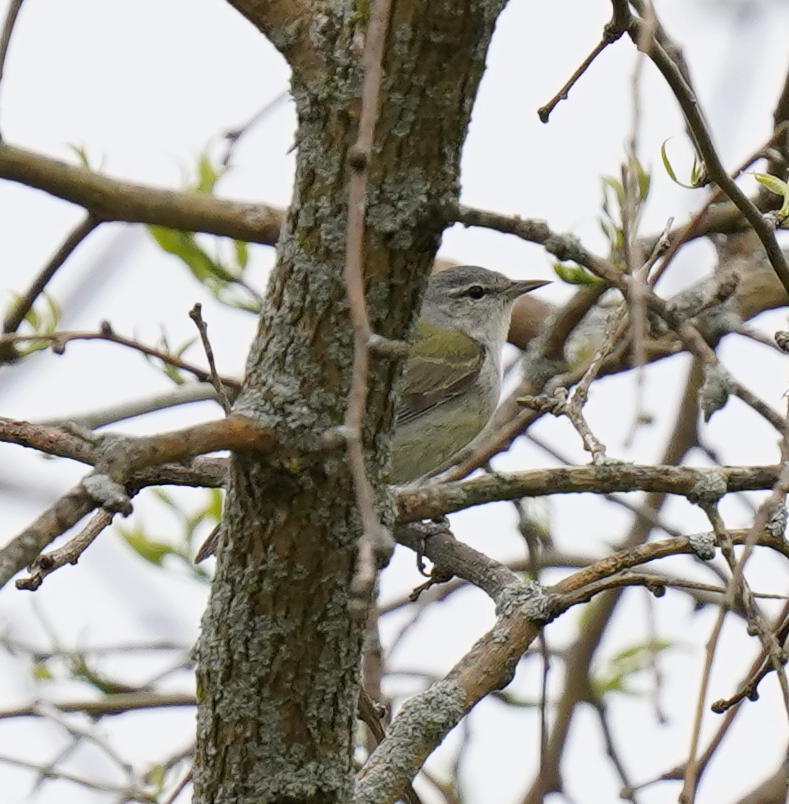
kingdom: Animalia
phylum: Chordata
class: Aves
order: Passeriformes
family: Parulidae
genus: Leiothlypis
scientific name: Leiothlypis peregrina
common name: Tennessee warbler
